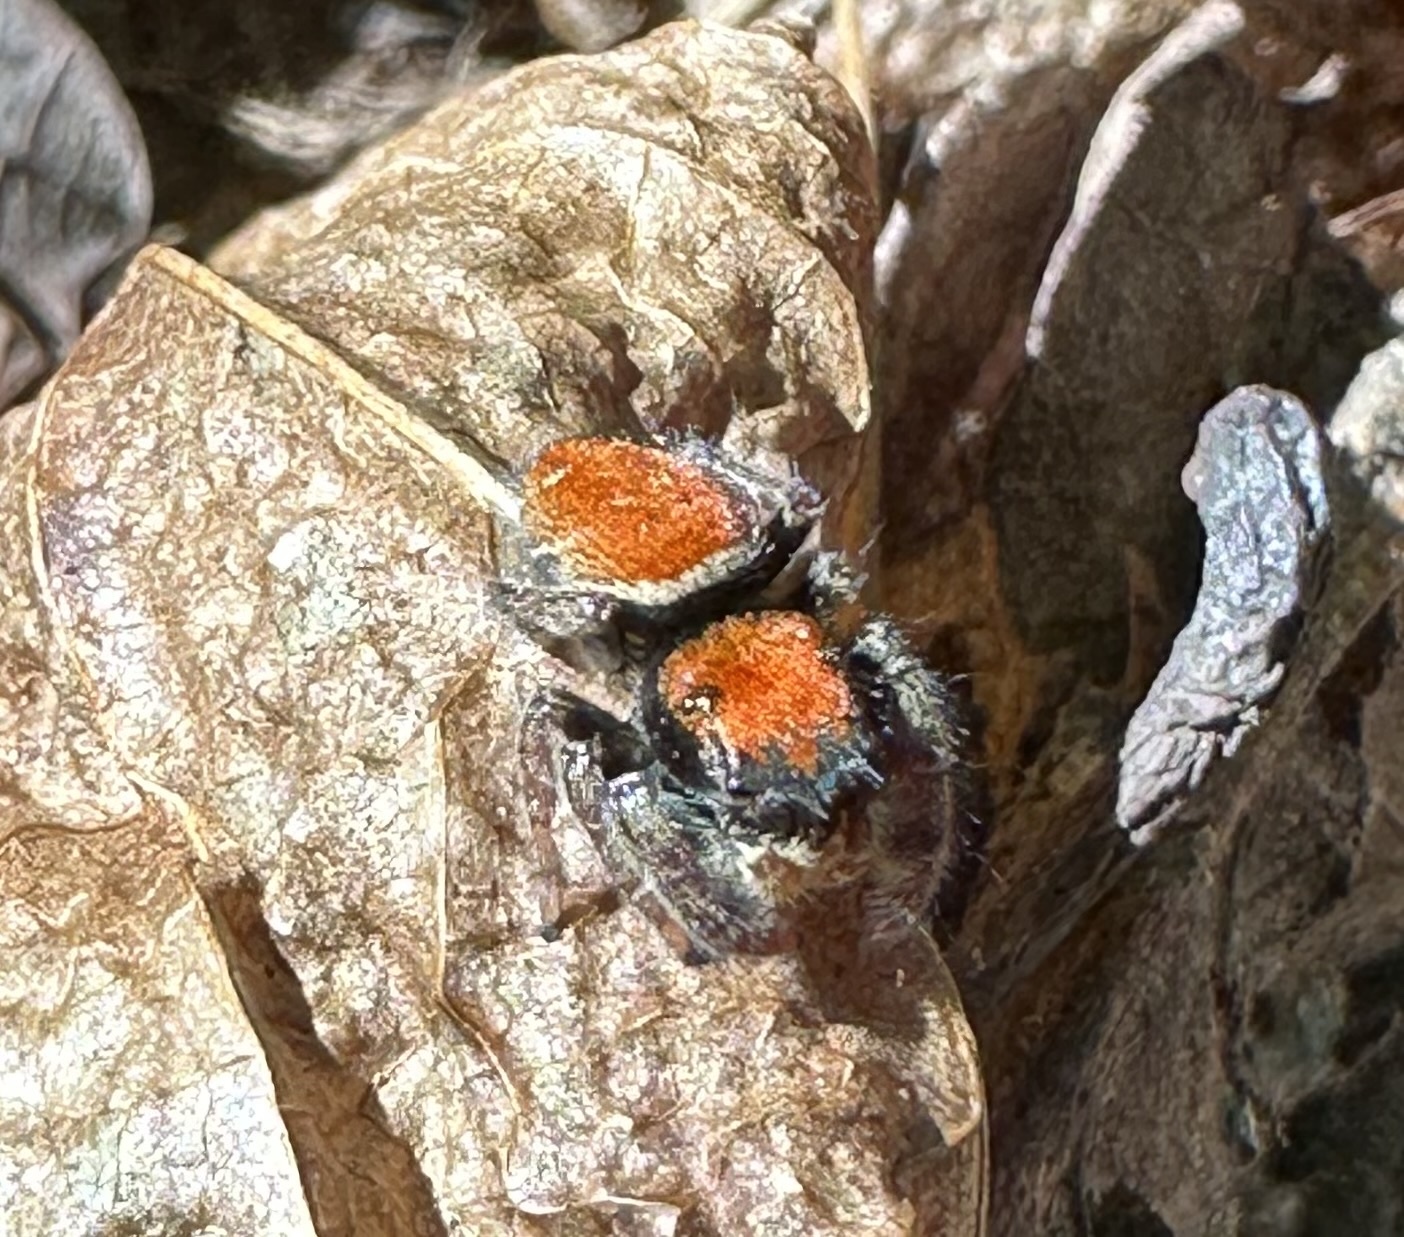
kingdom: Animalia
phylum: Arthropoda
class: Arachnida
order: Araneae
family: Salticidae
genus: Phidippus
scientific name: Phidippus whitmani
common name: Whitman's jumping spider
